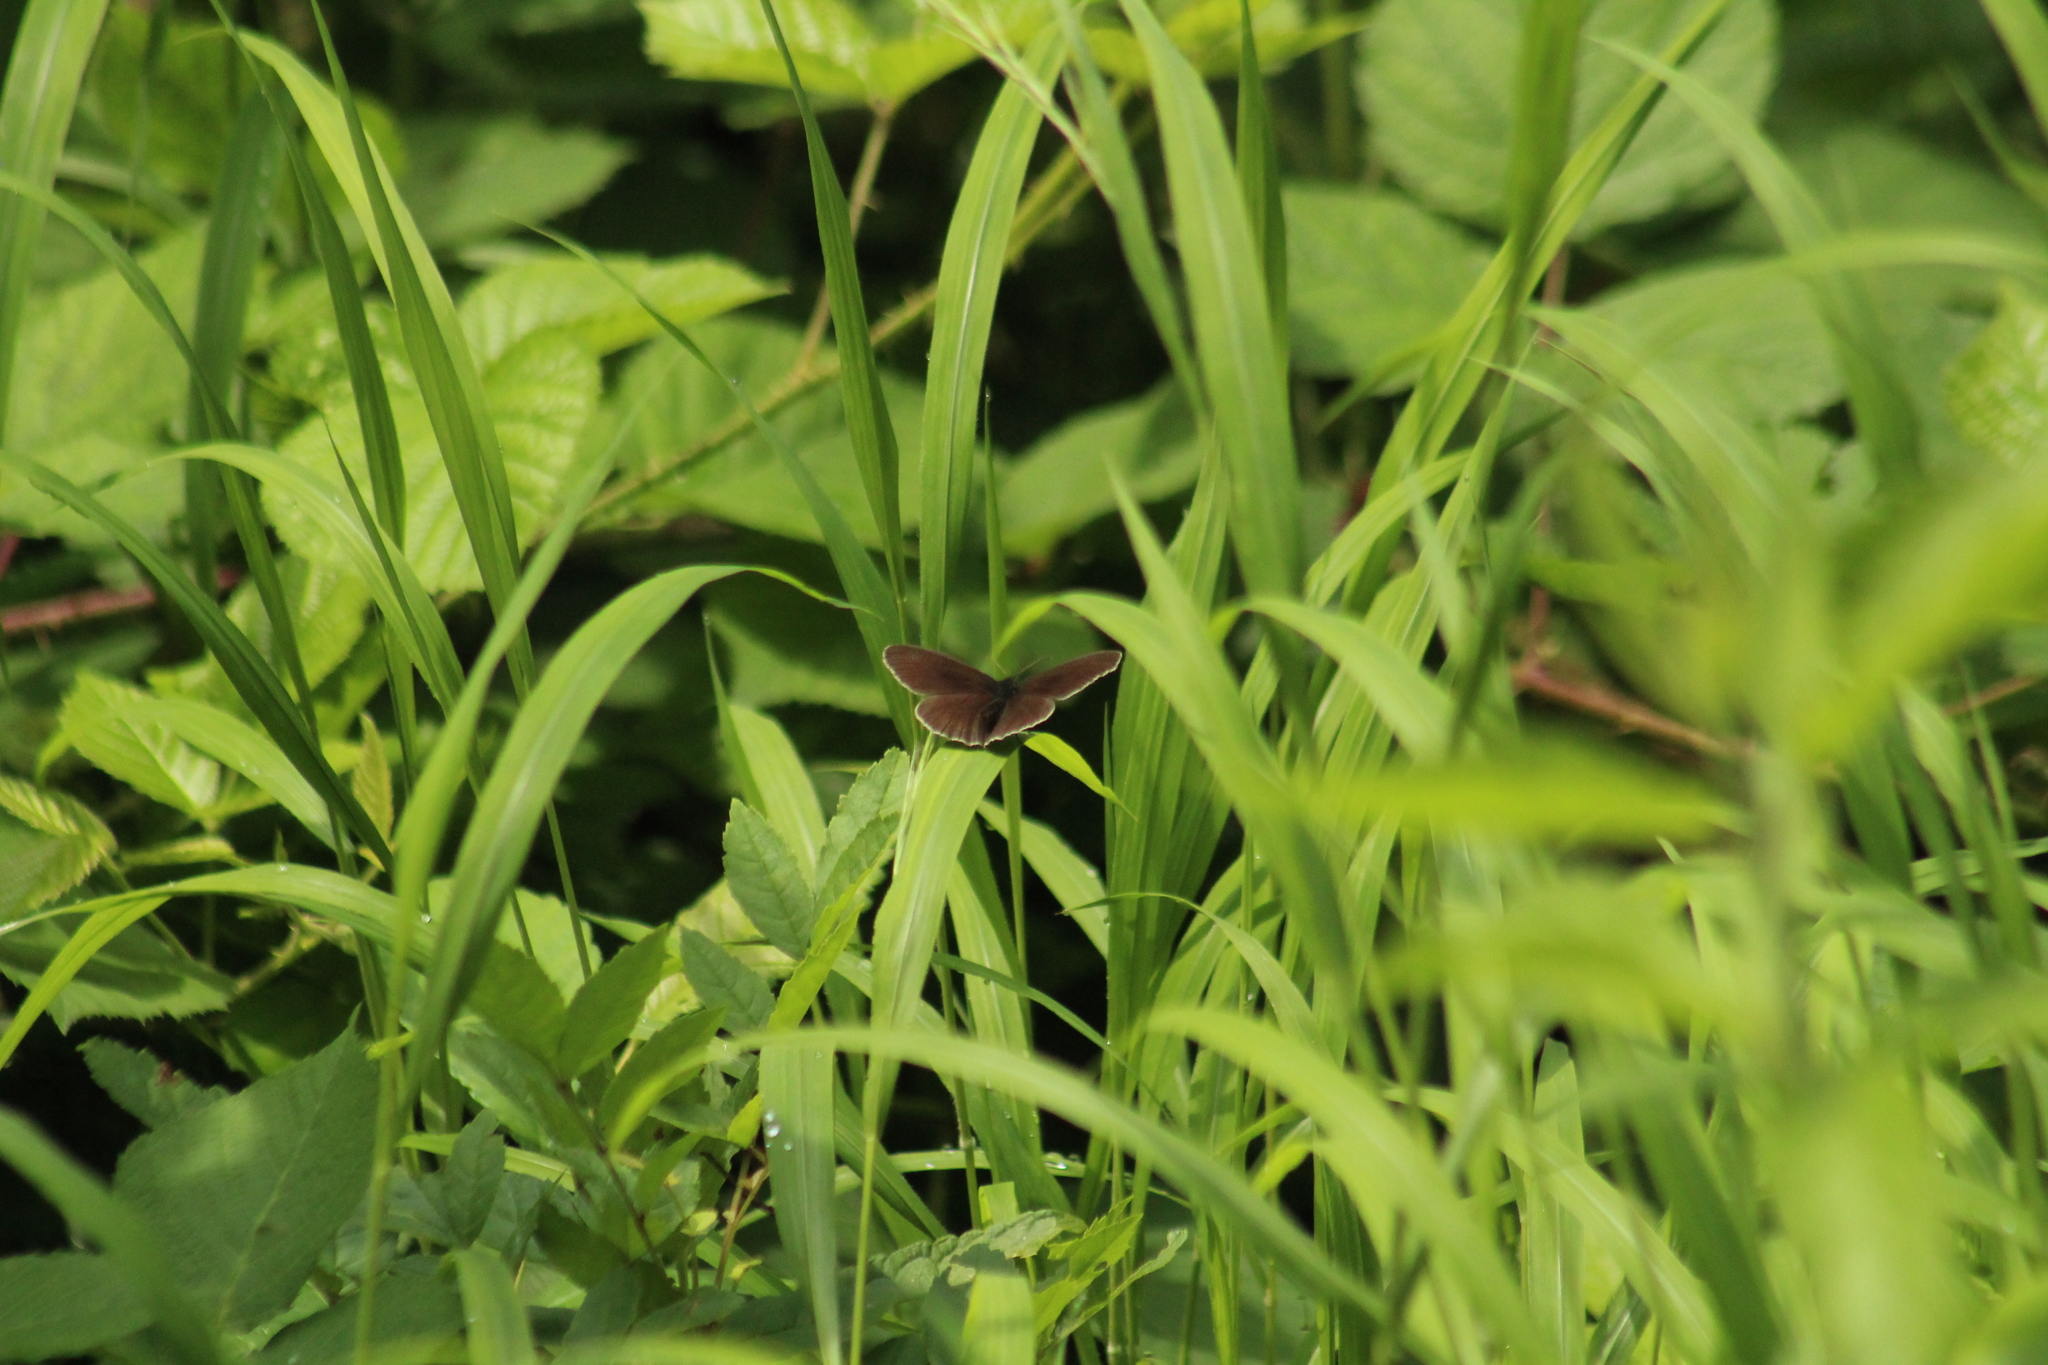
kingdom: Animalia
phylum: Arthropoda
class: Insecta
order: Lepidoptera
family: Nymphalidae
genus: Aphantopus
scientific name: Aphantopus hyperantus
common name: Ringlet
